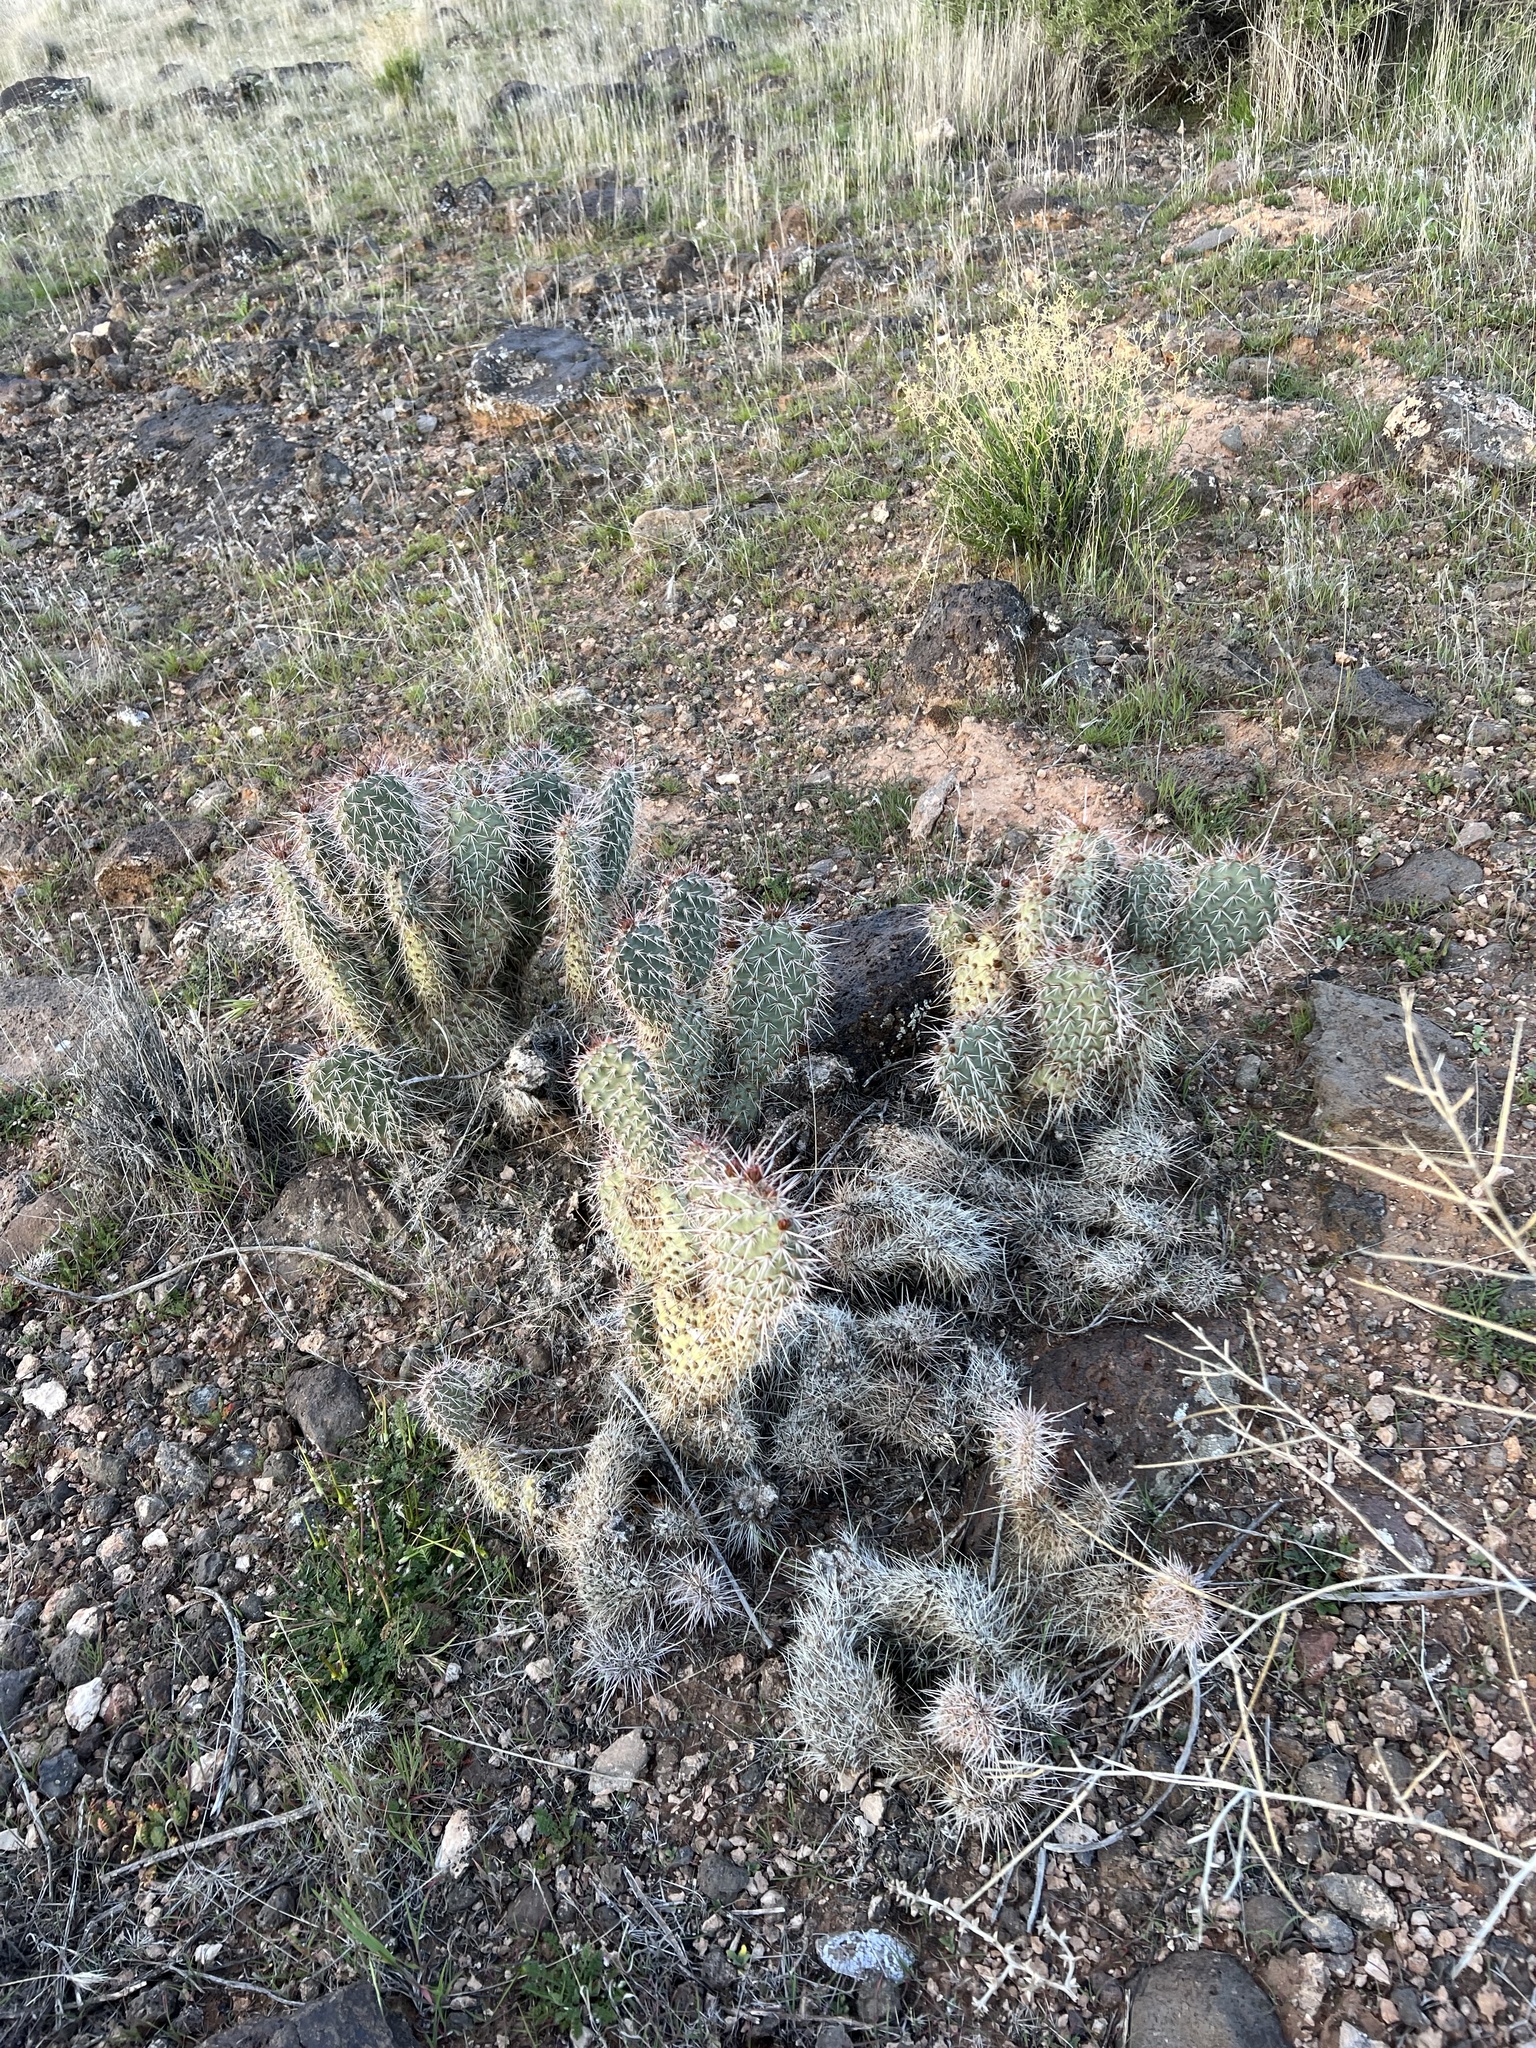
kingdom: Plantae
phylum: Tracheophyta
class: Magnoliopsida
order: Caryophyllales
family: Cactaceae
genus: Opuntia
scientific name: Opuntia polyacantha
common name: Plains prickly-pear
